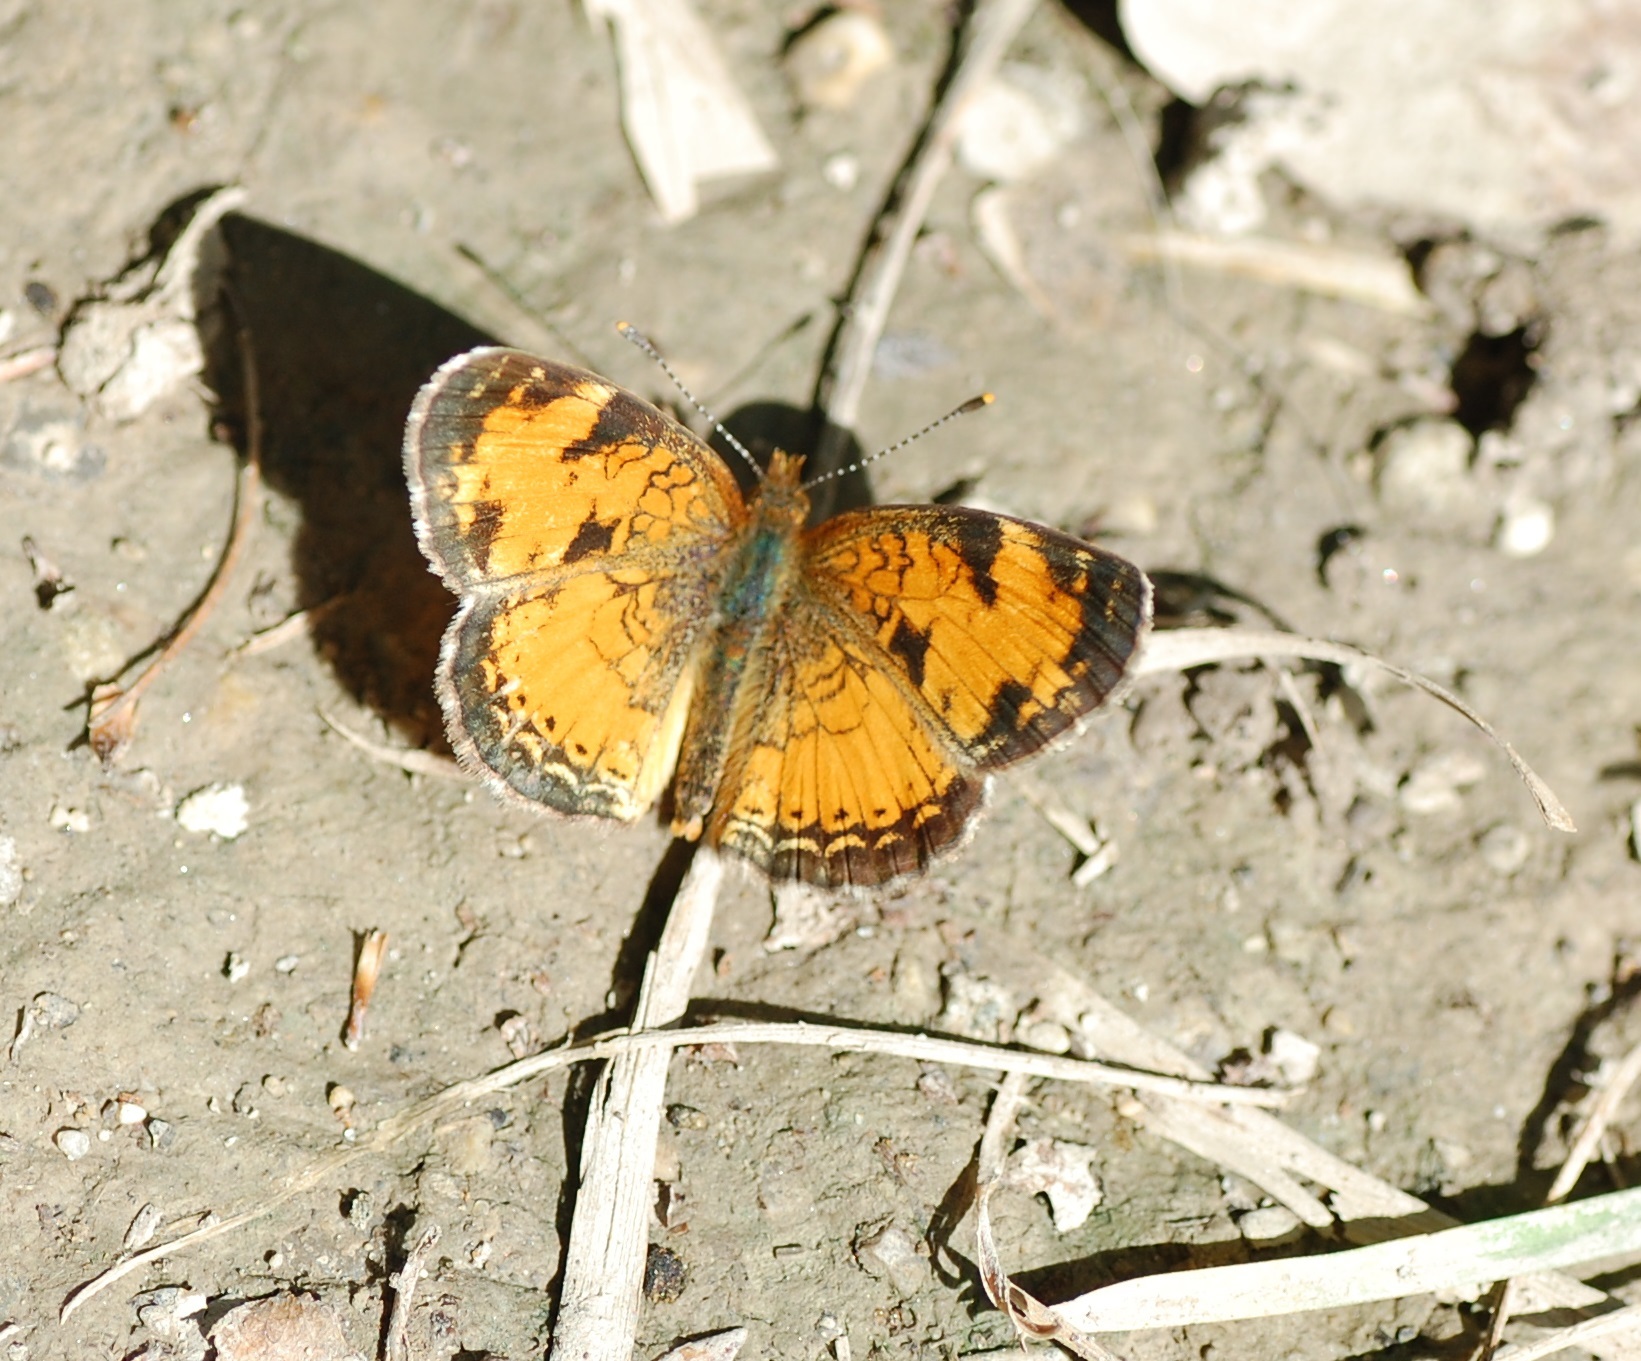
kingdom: Animalia
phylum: Arthropoda
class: Insecta
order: Lepidoptera
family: Nymphalidae
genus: Phyciodes
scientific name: Phyciodes tharos
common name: Pearl crescent
